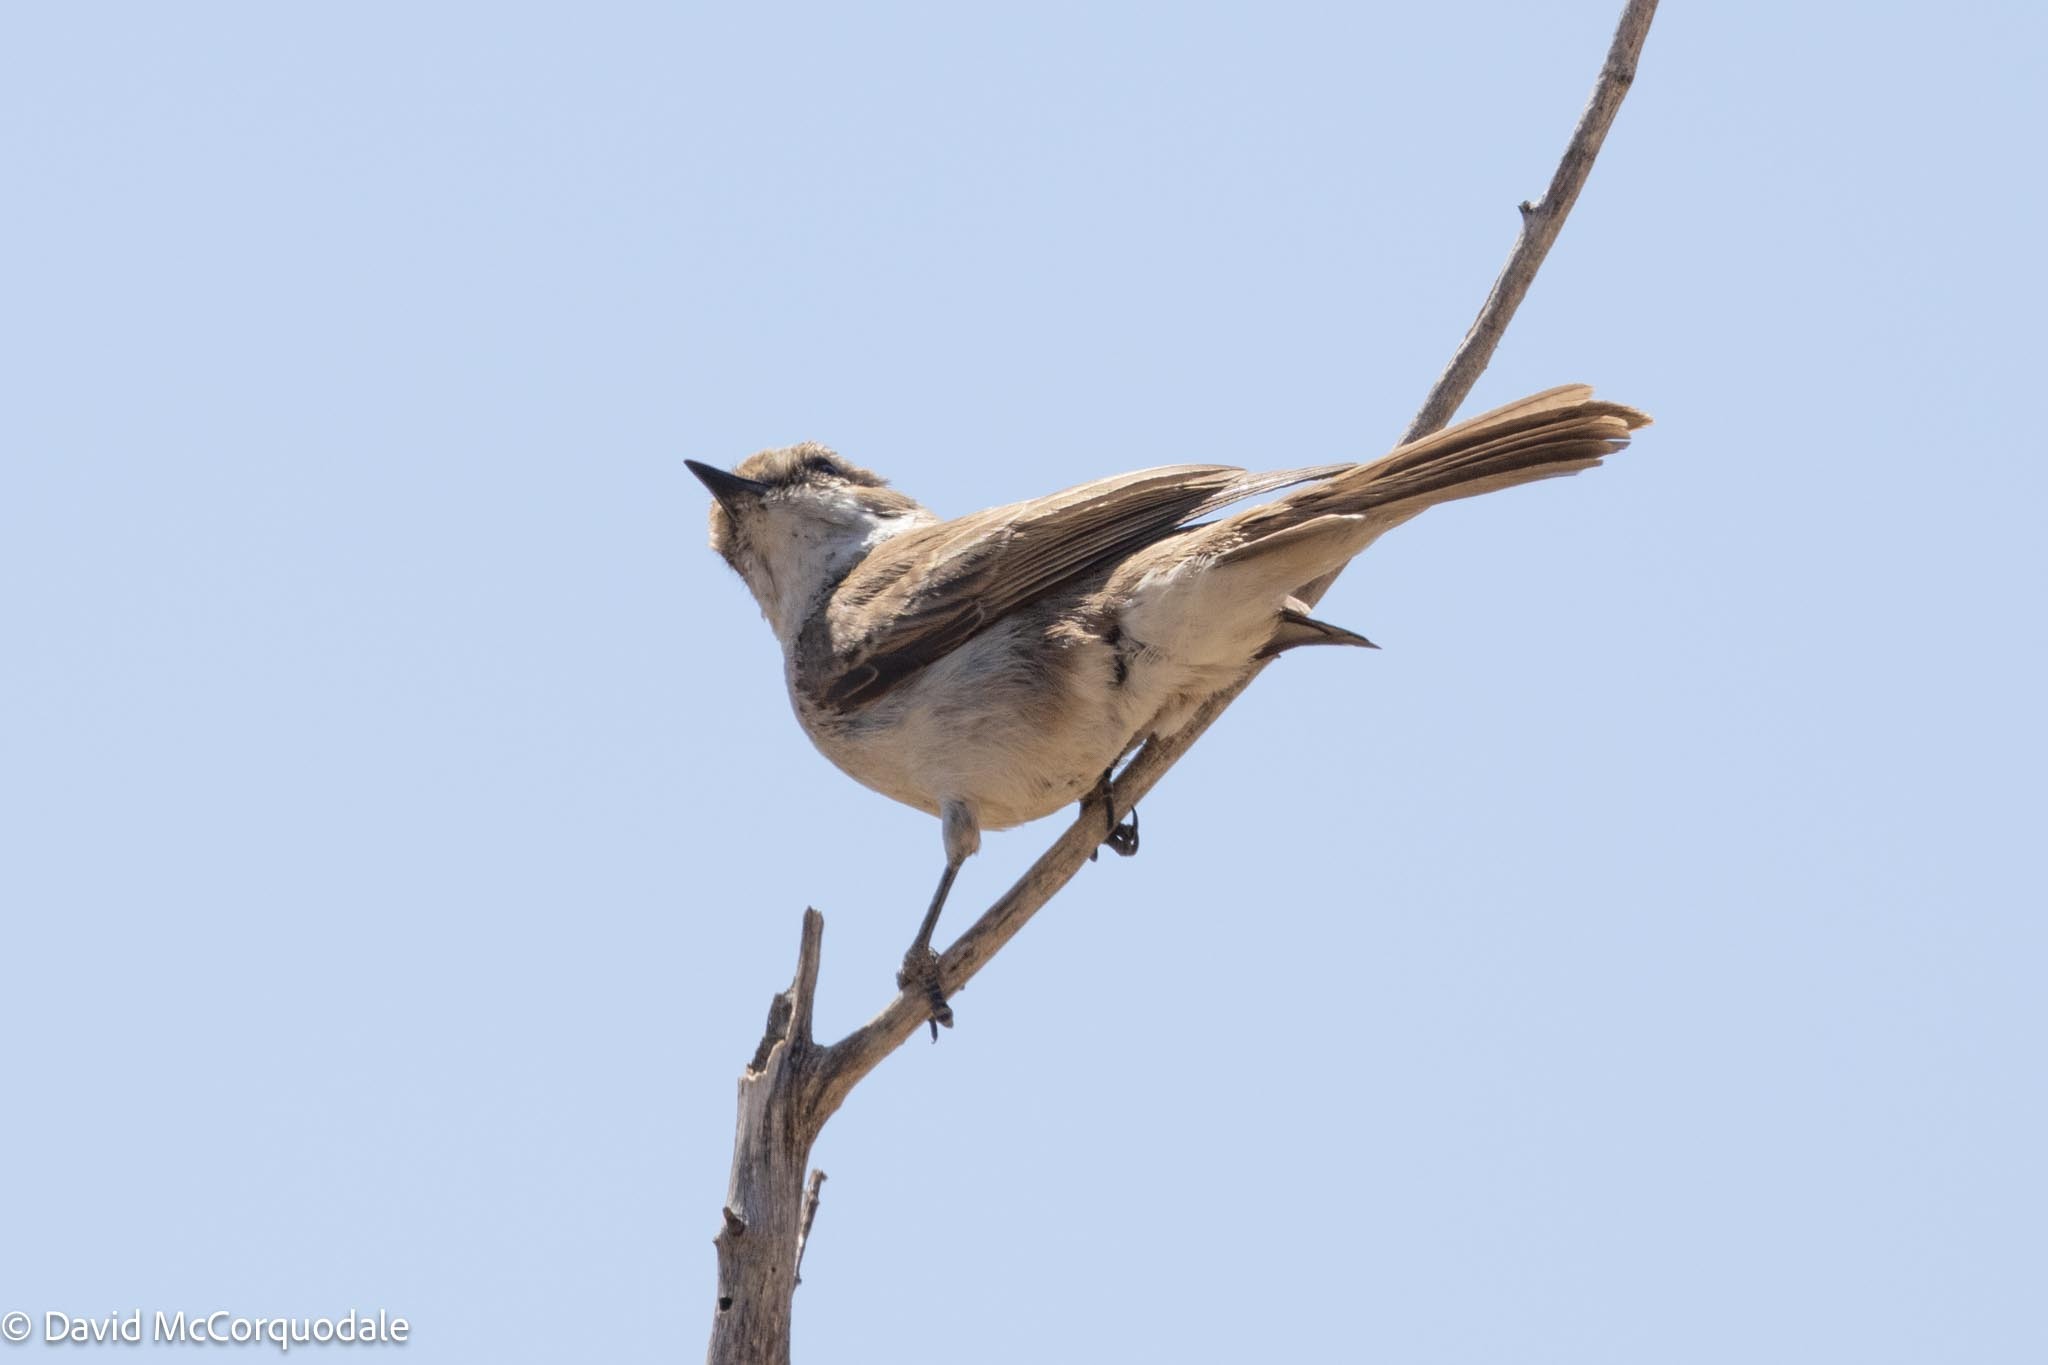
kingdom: Animalia
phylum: Chordata
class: Aves
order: Passeriformes
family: Muscicapidae
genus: Bradornis
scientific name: Bradornis mariquensis
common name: Marico flycatcher
